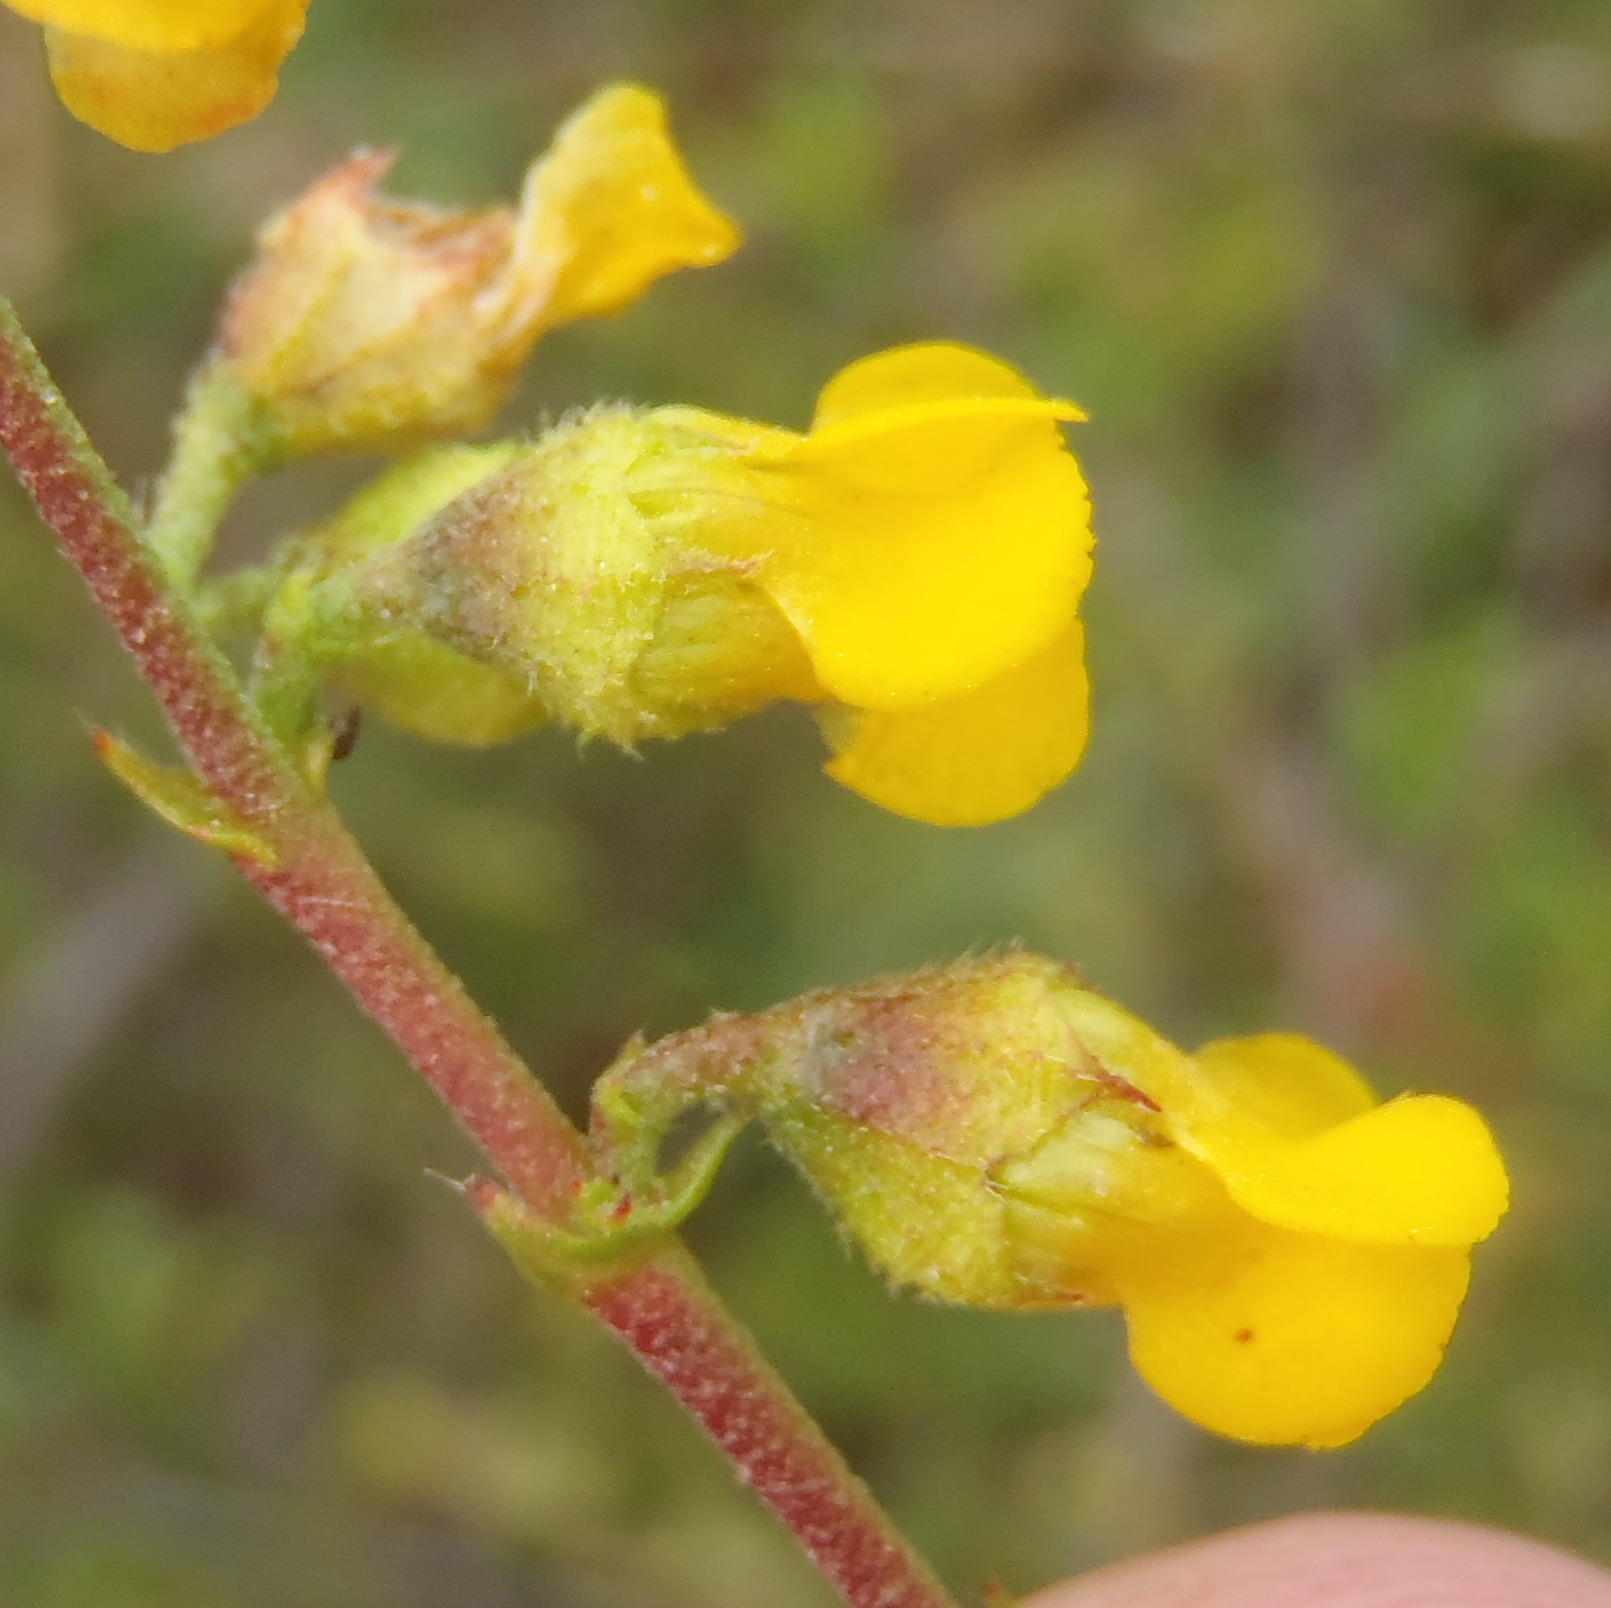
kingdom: Plantae
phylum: Tracheophyta
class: Magnoliopsida
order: Malvales
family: Malvaceae
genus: Hermannia
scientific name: Hermannia alnifolia
